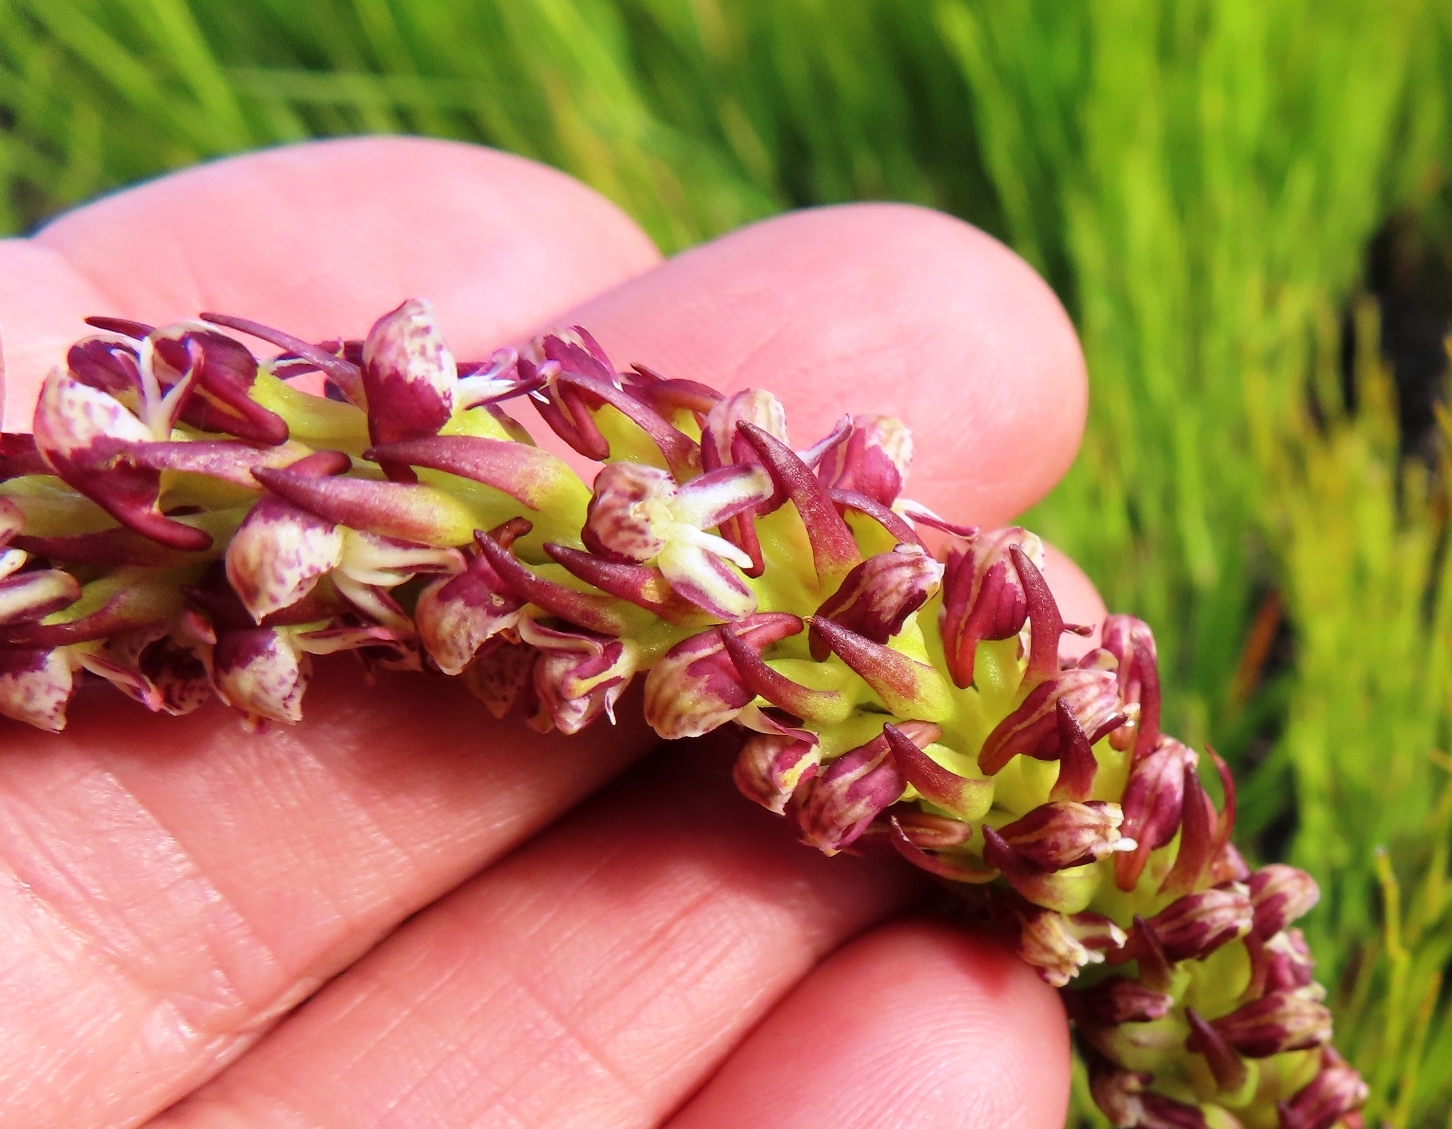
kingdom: Plantae
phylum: Tracheophyta
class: Liliopsida
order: Asparagales
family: Orchidaceae
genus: Disa
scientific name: Disa obtusa
